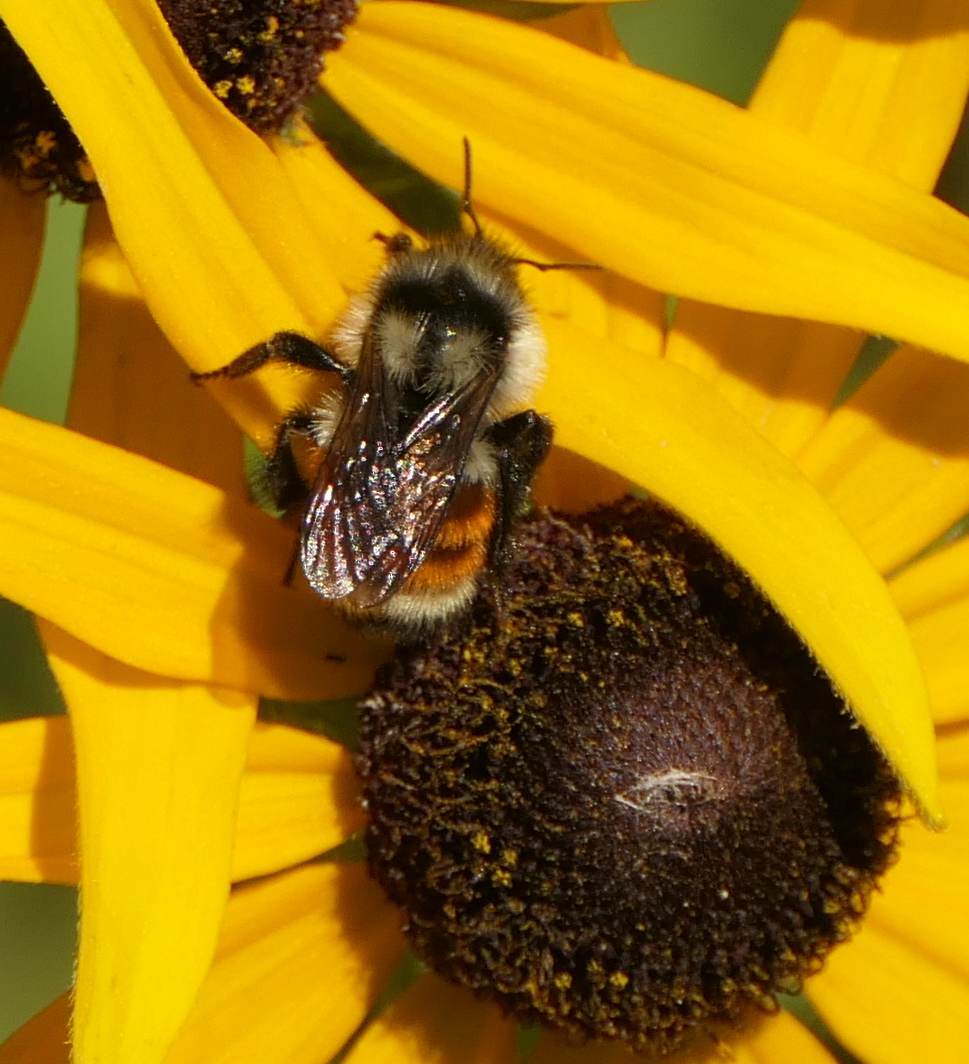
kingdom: Animalia
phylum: Arthropoda
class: Insecta
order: Hymenoptera
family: Apidae
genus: Bombus
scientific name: Bombus ternarius
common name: Tri-colored bumble bee
